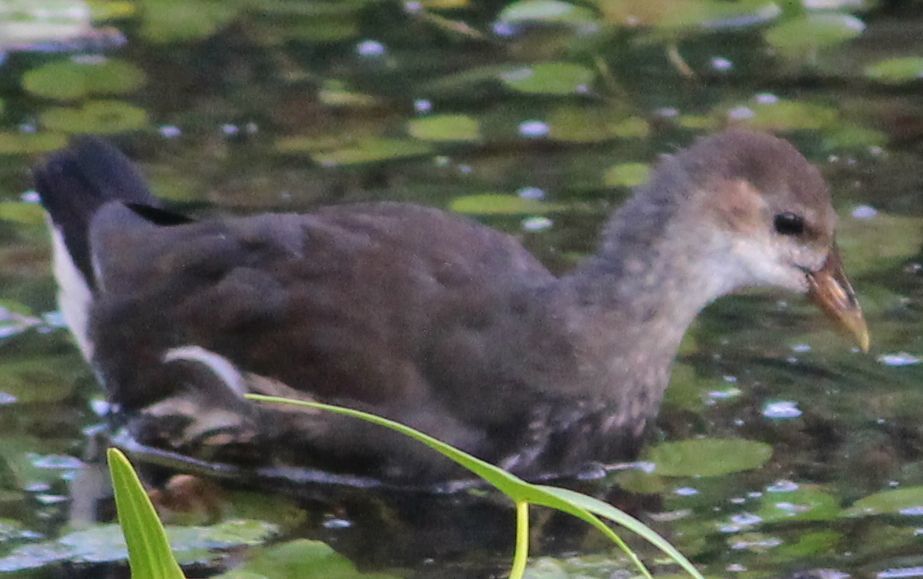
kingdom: Animalia
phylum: Chordata
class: Aves
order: Gruiformes
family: Rallidae
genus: Gallinula
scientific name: Gallinula chloropus
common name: Common moorhen
